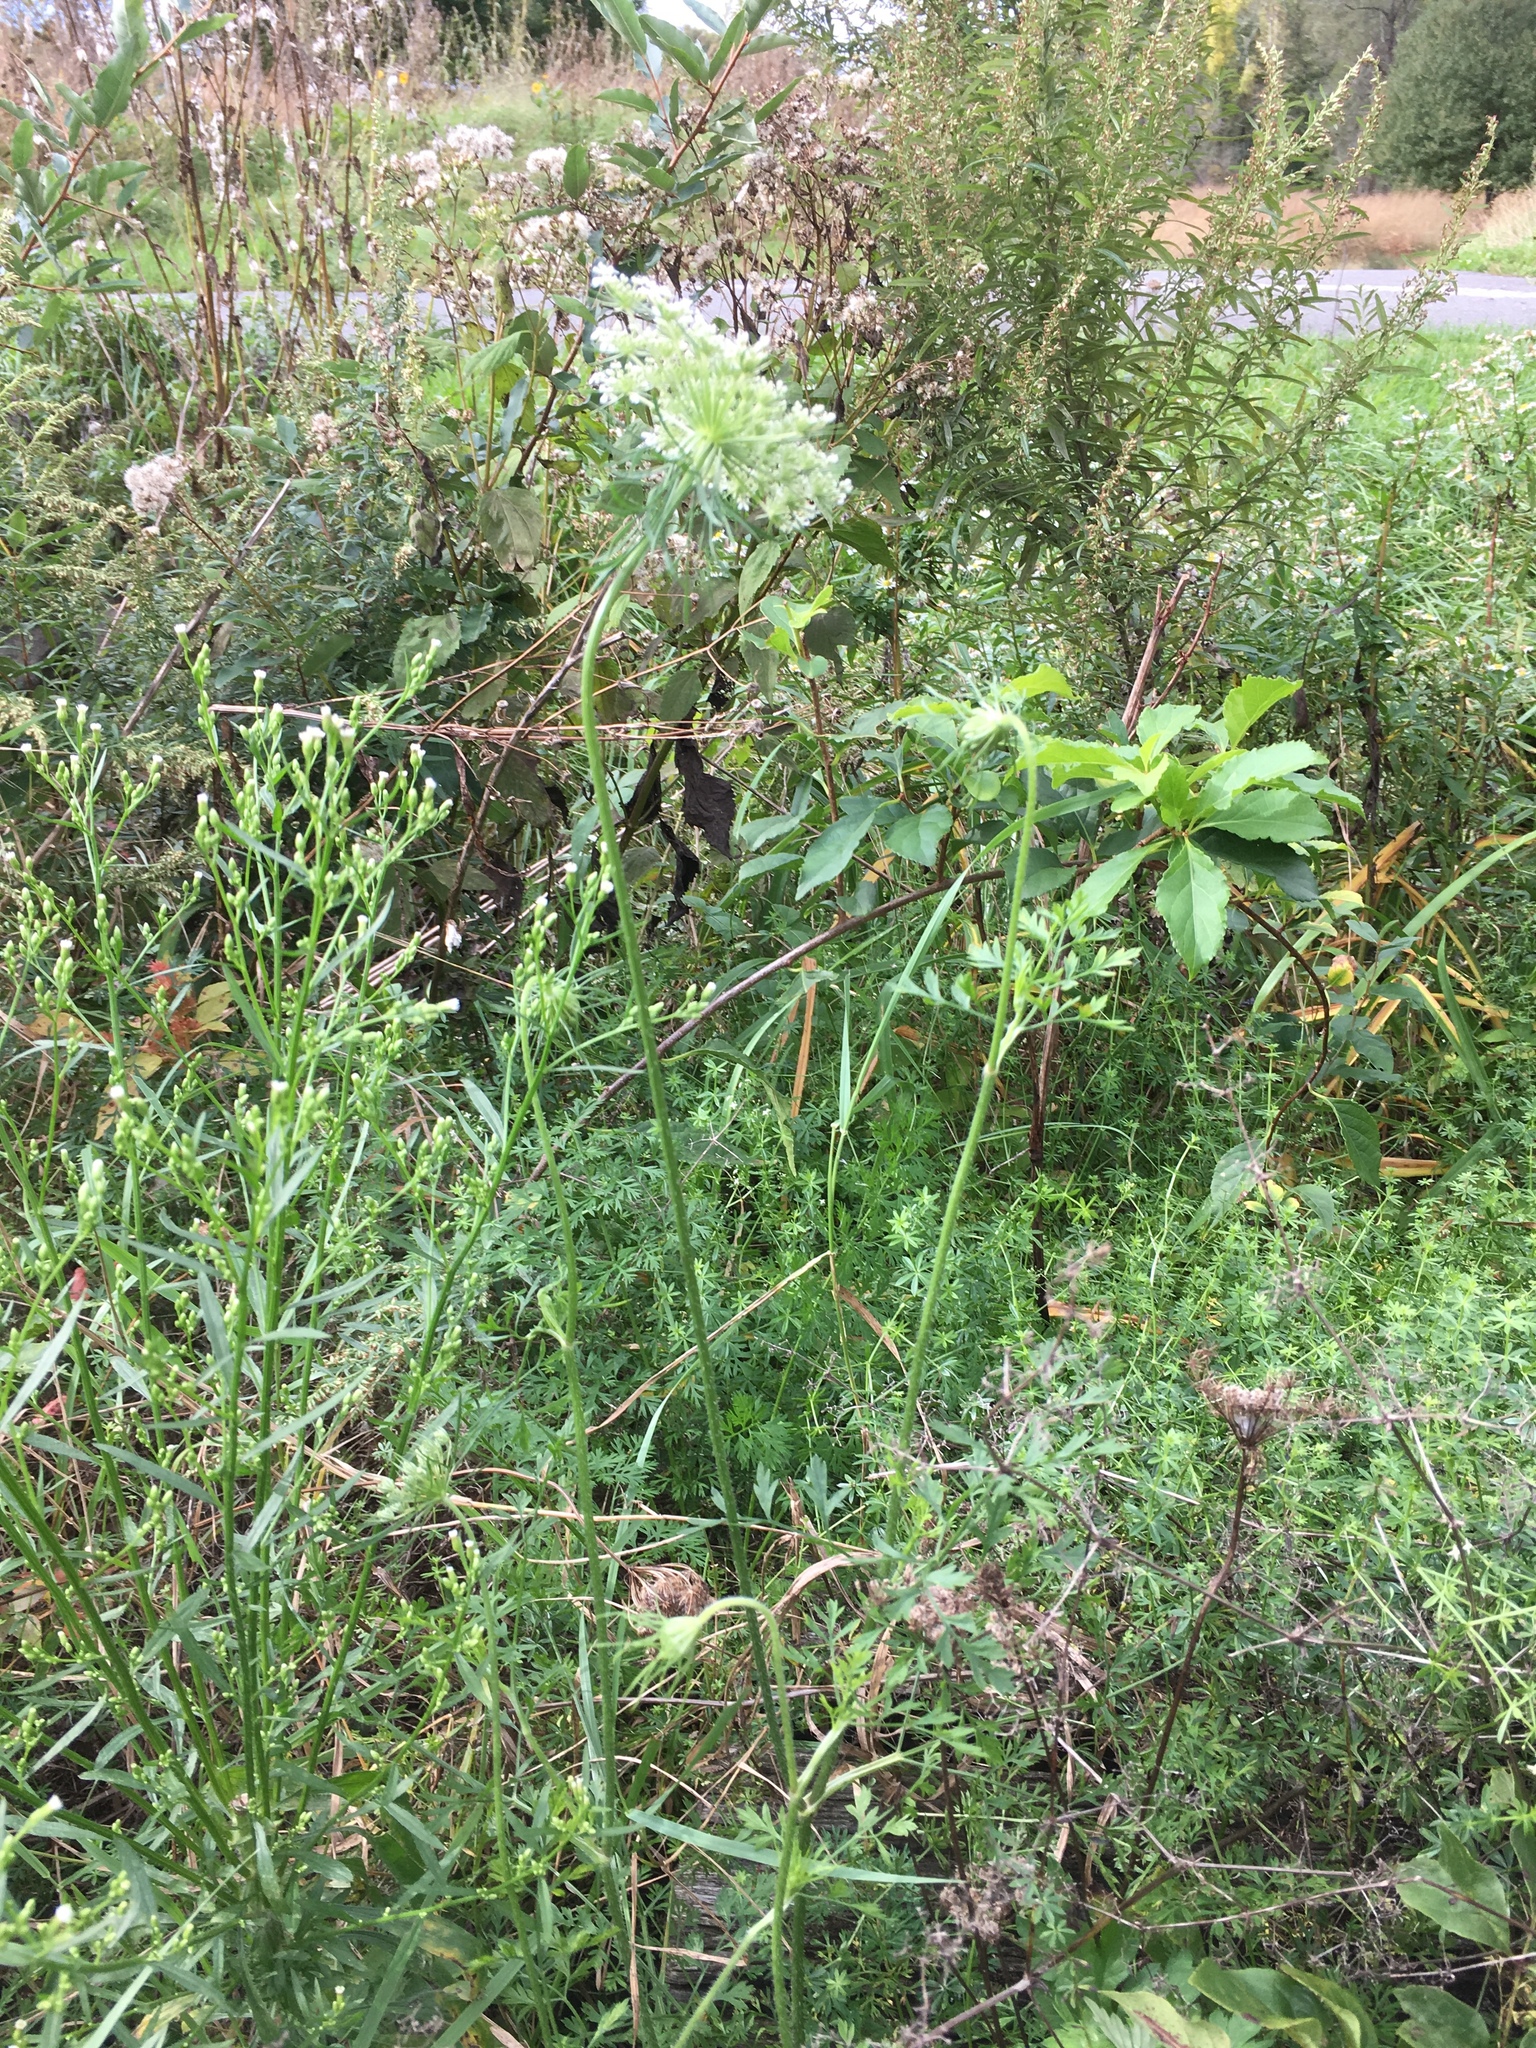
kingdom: Plantae
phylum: Tracheophyta
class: Magnoliopsida
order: Apiales
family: Apiaceae
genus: Daucus
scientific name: Daucus carota
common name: Wild carrot
